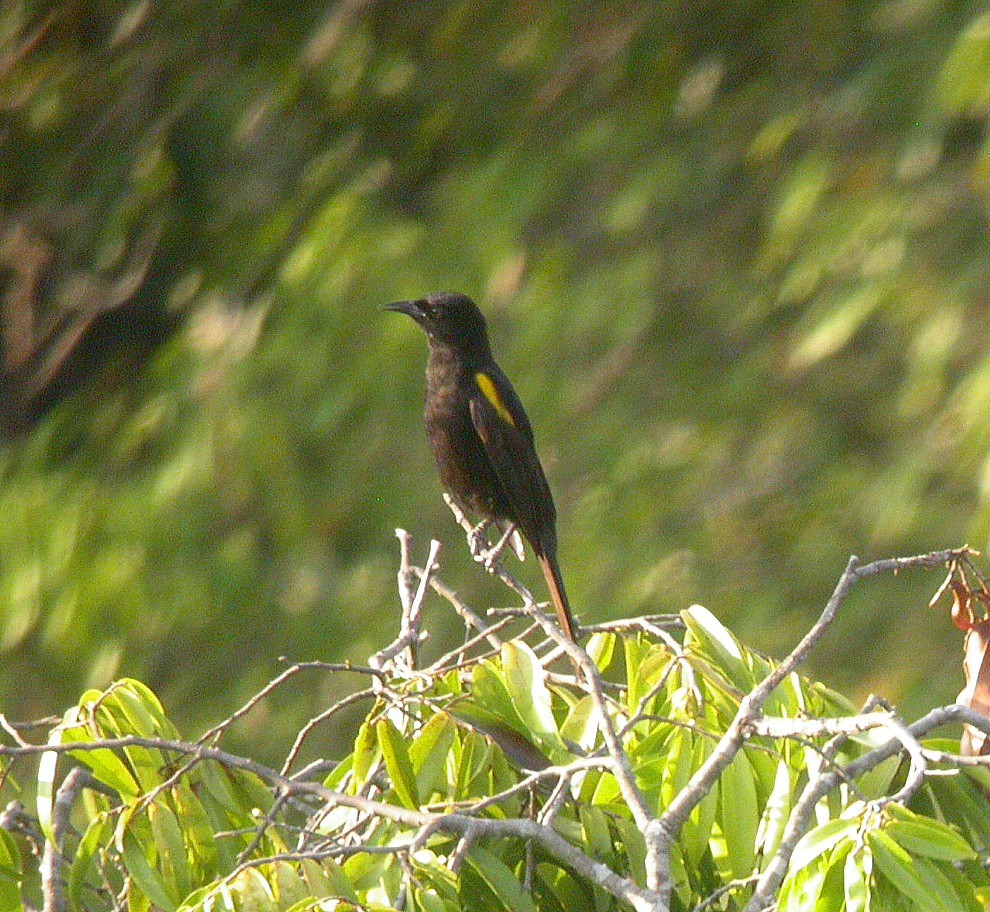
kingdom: Animalia
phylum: Chordata
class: Aves
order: Passeriformes
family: Icteridae
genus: Icterus
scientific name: Icterus cayanensis
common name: Epaulet oriole
